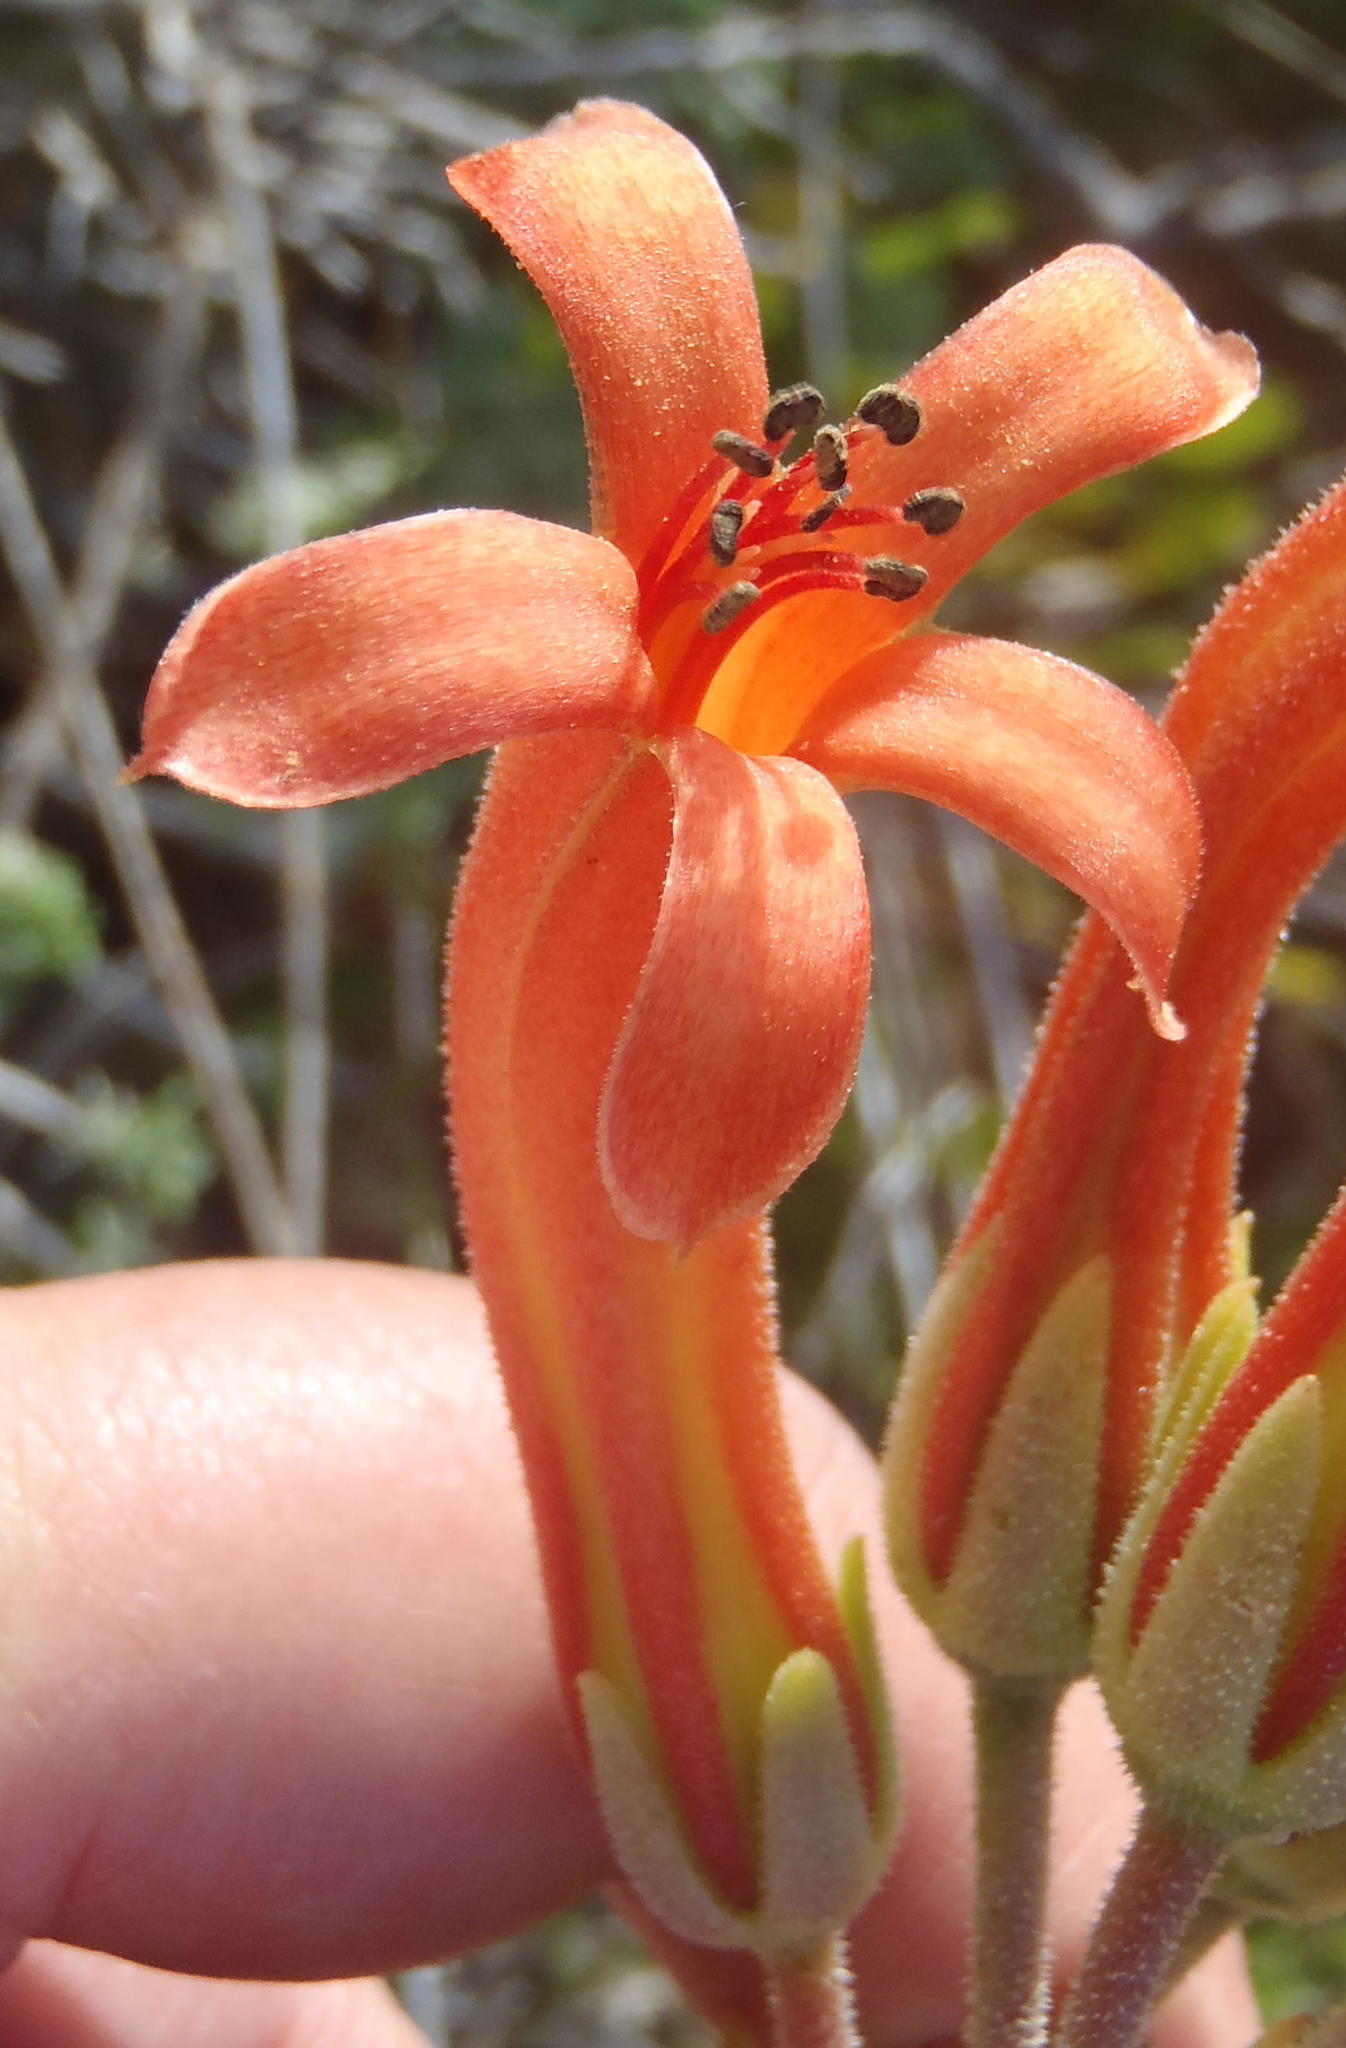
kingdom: Plantae
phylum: Tracheophyta
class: Magnoliopsida
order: Saxifragales
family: Crassulaceae
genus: Tylecodon
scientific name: Tylecodon grandiflorus
